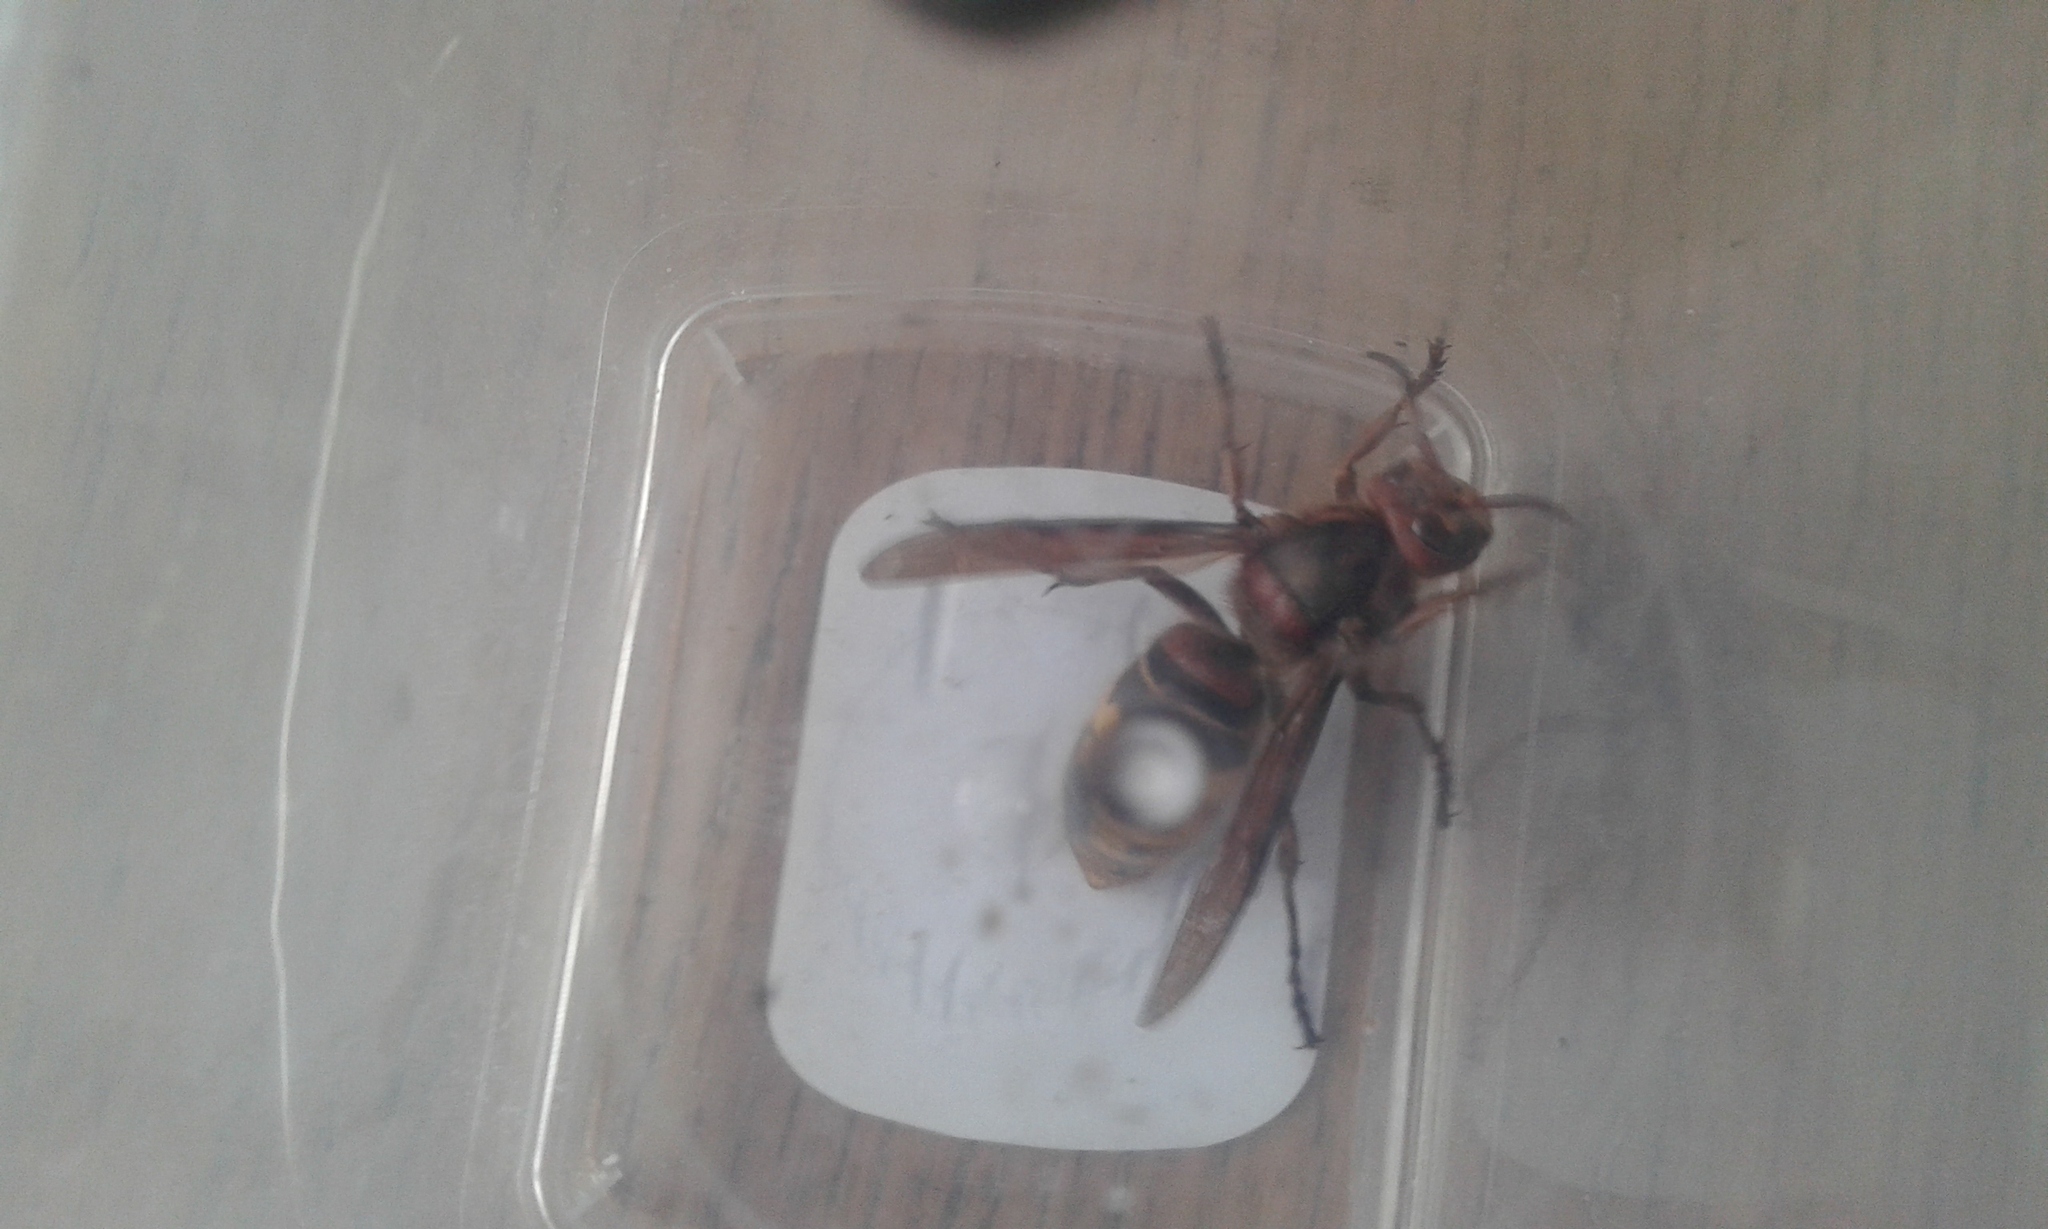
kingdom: Animalia
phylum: Arthropoda
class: Insecta
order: Hymenoptera
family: Vespidae
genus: Vespa
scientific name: Vespa crabro
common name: Hornet
